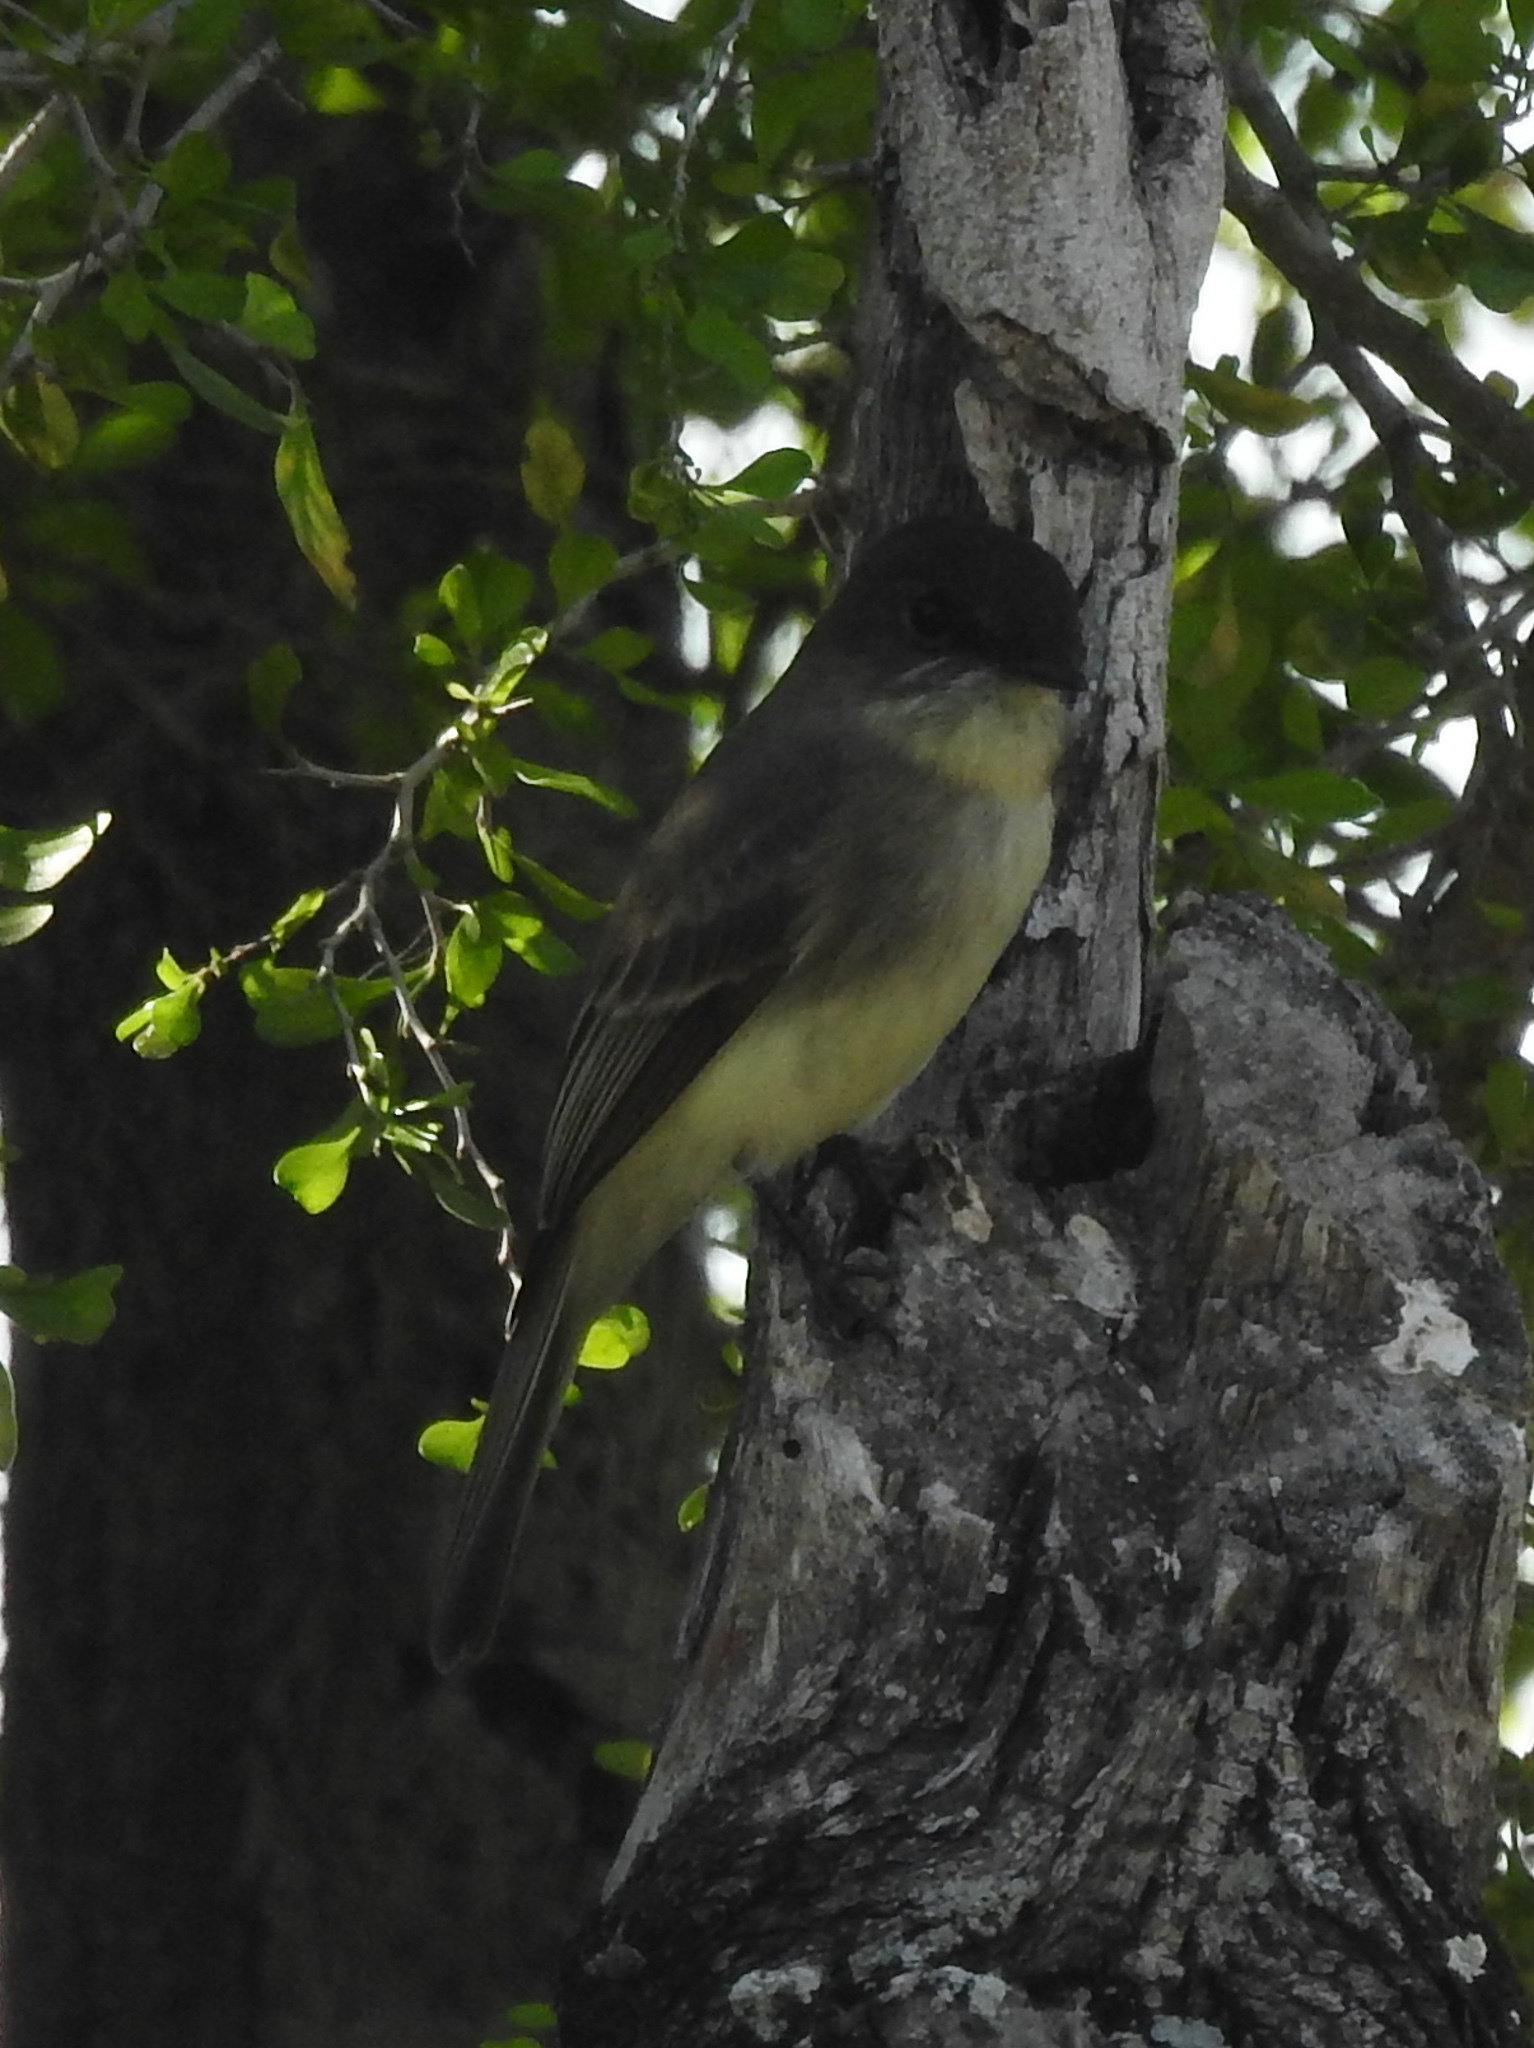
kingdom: Animalia
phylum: Chordata
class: Aves
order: Passeriformes
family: Tyrannidae
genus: Sayornis
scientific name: Sayornis phoebe
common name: Eastern phoebe
